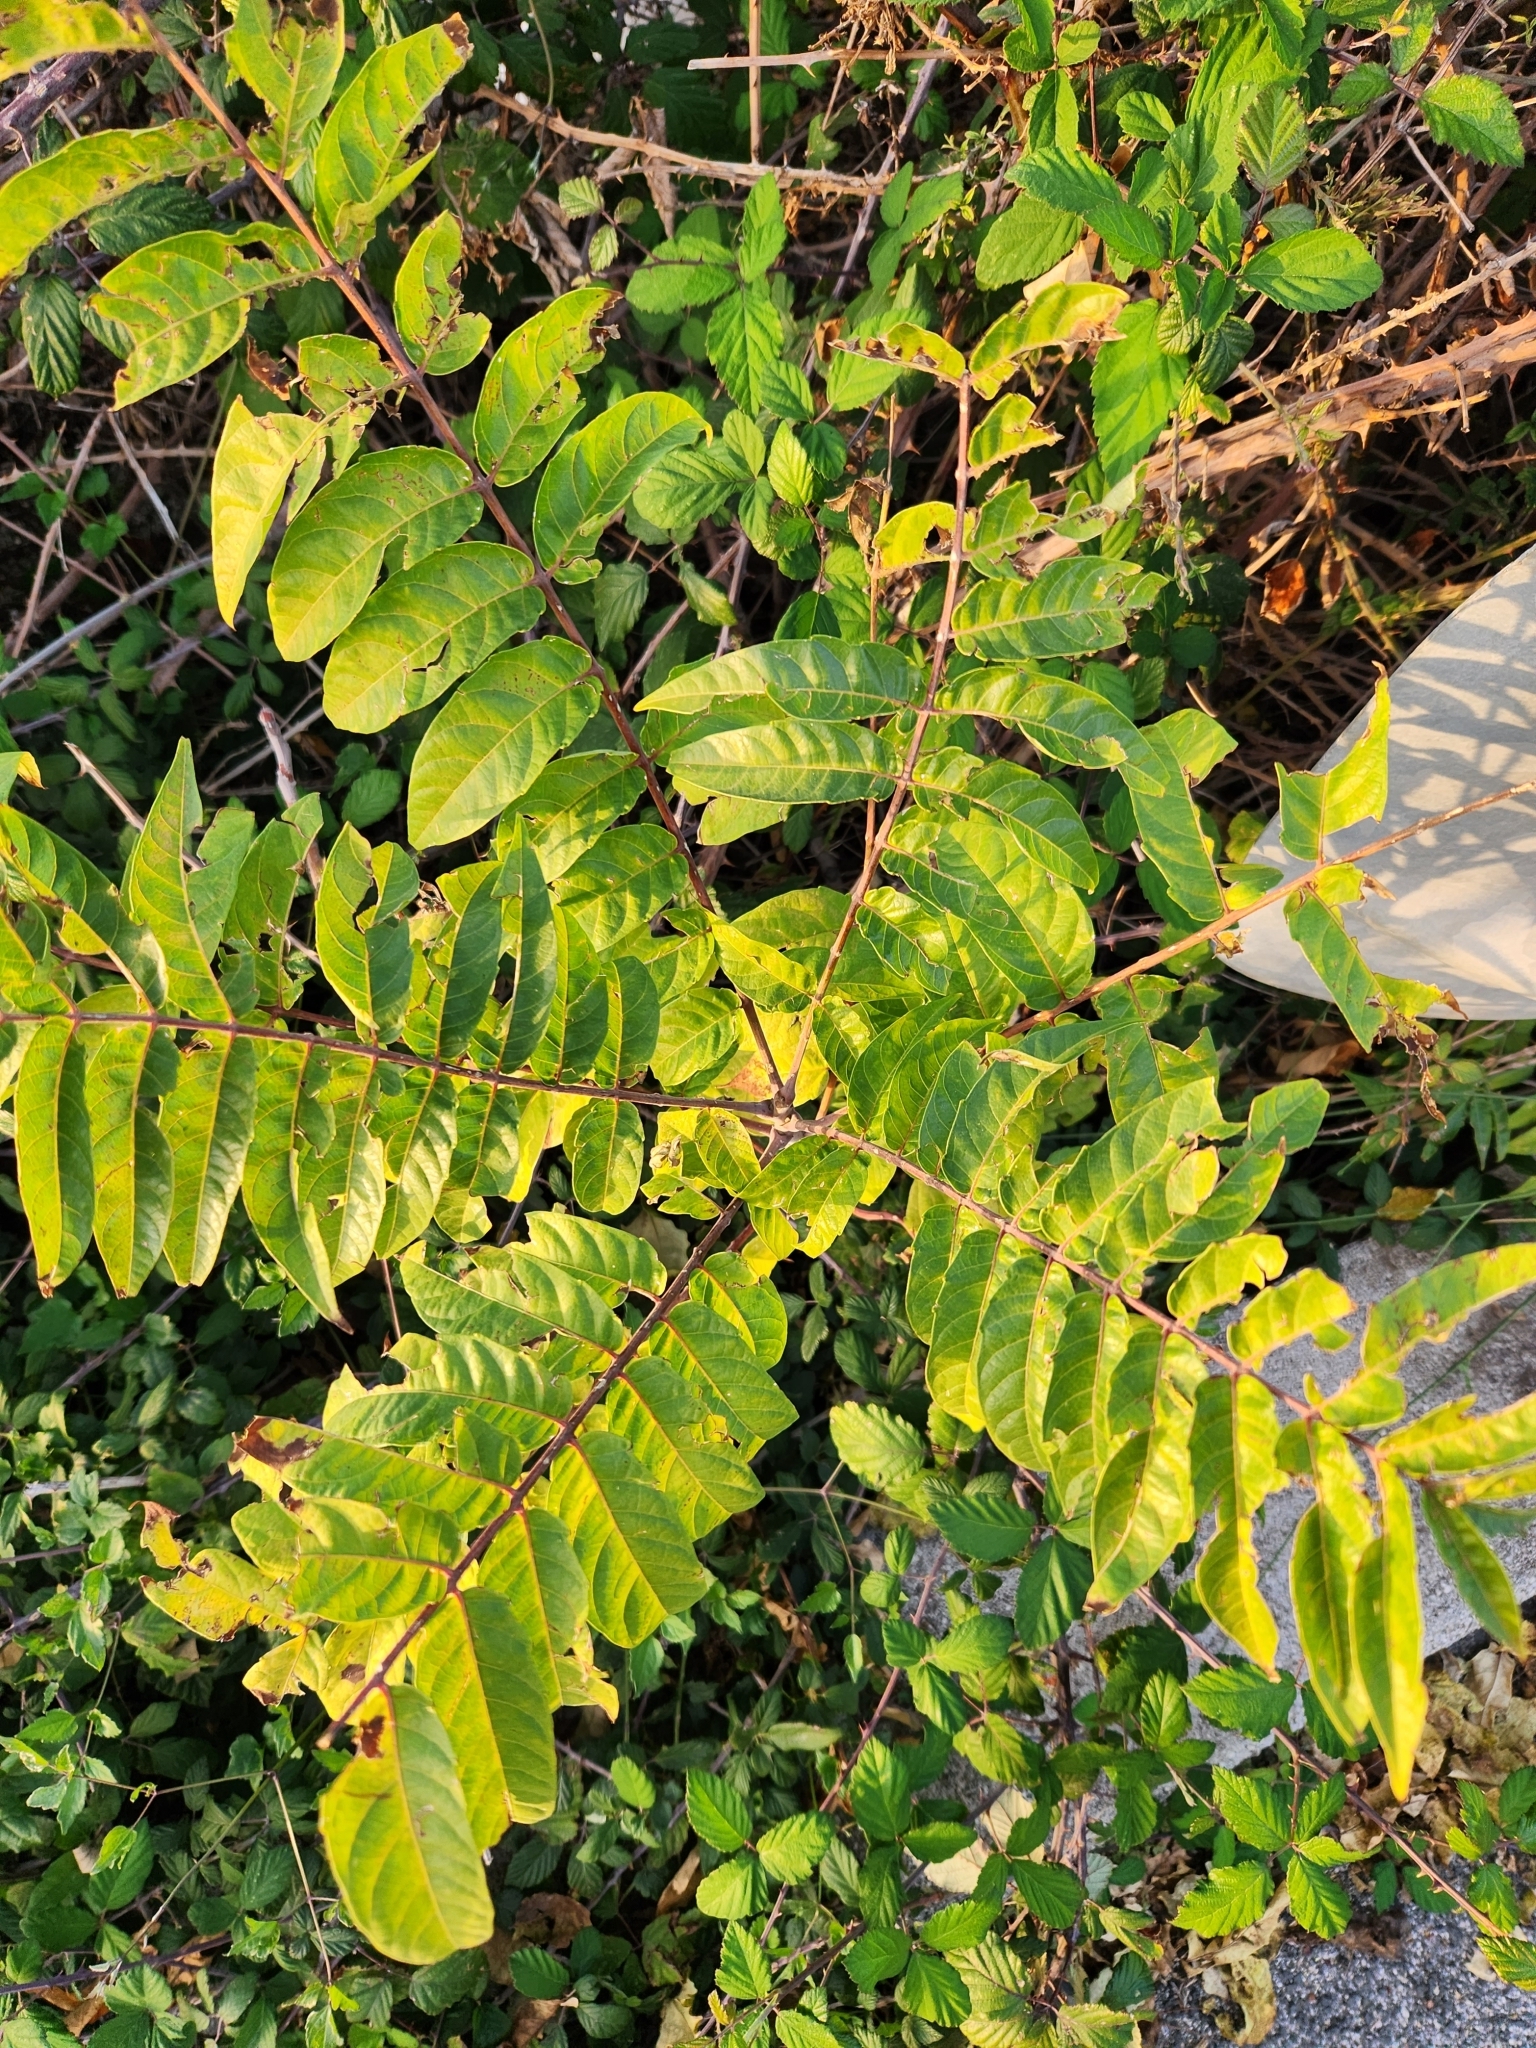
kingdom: Plantae
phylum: Tracheophyta
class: Magnoliopsida
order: Sapindales
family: Simaroubaceae
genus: Ailanthus
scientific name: Ailanthus altissima
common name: Tree-of-heaven
